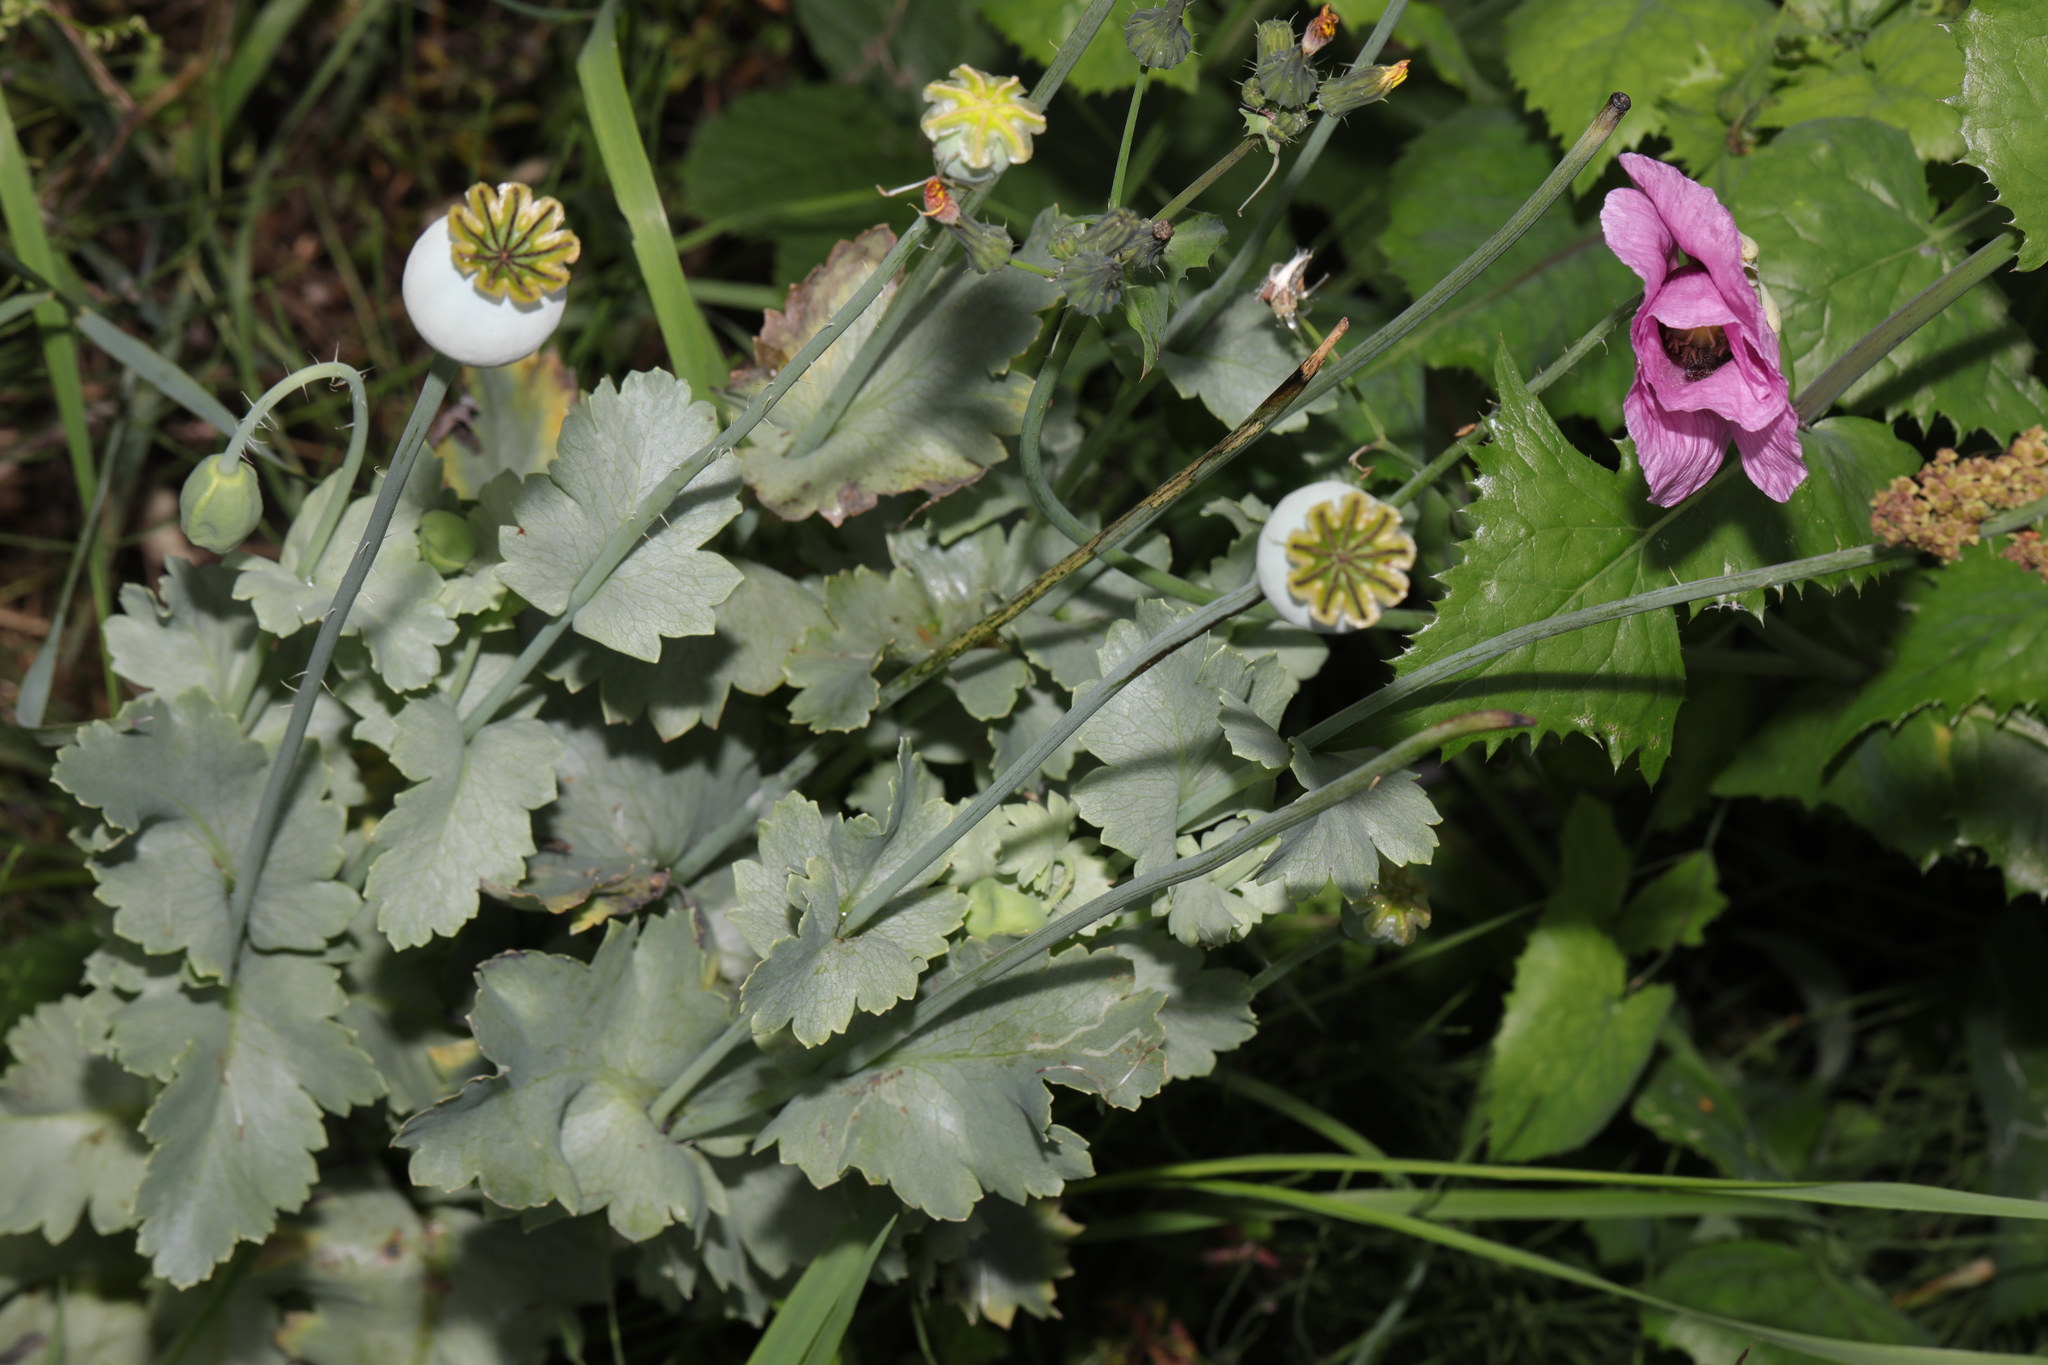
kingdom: Plantae
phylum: Tracheophyta
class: Magnoliopsida
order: Ranunculales
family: Papaveraceae
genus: Papaver
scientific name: Papaver somniferum
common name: Opium poppy
